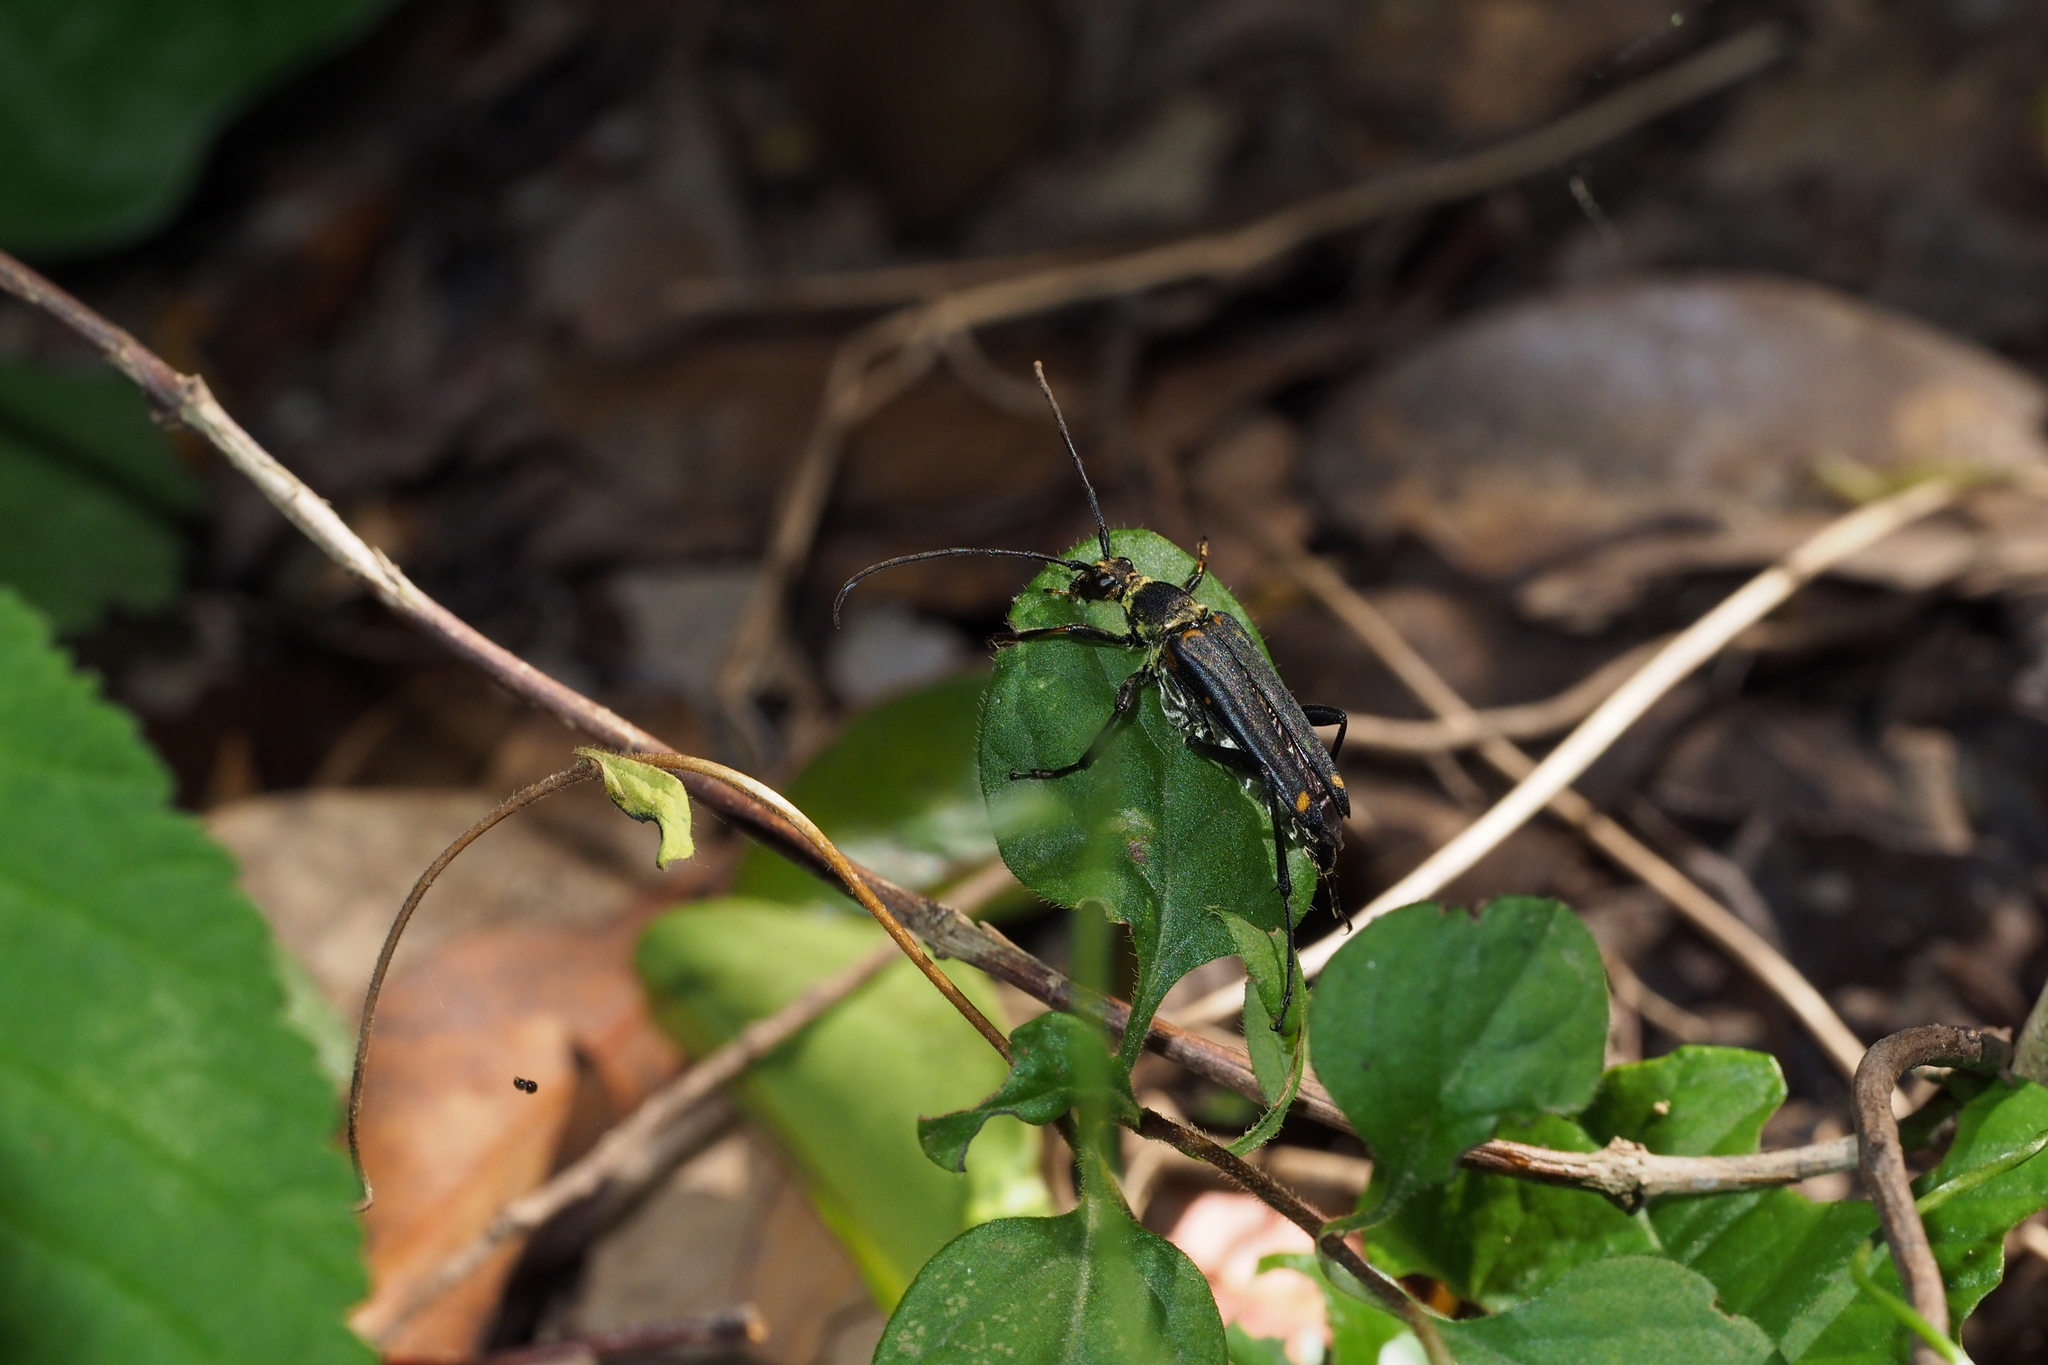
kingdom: Animalia
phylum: Arthropoda
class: Insecta
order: Coleoptera
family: Cerambycidae
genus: Leptura
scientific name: Leptura mimica
